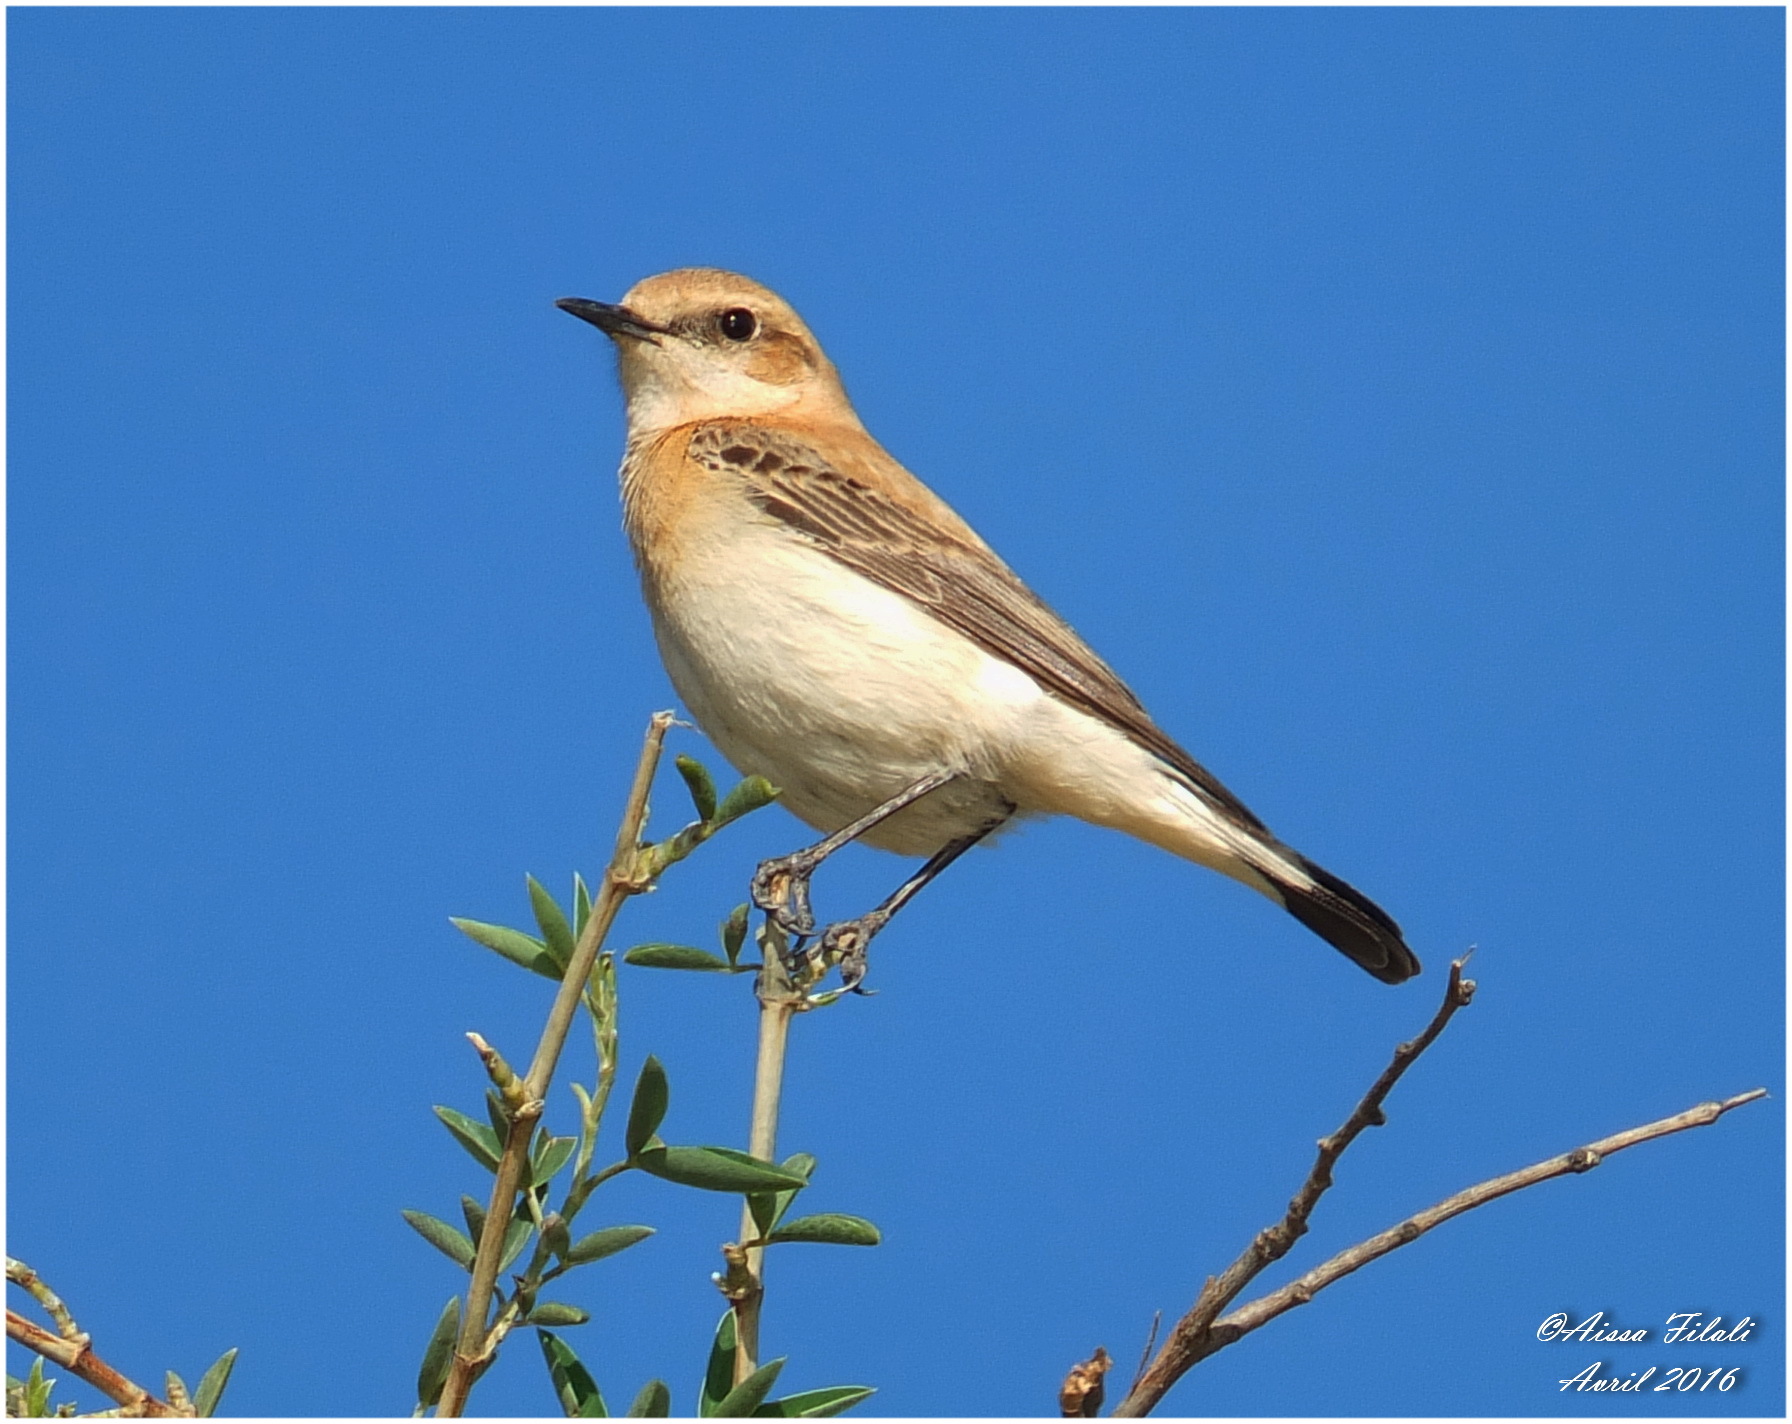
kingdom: Animalia
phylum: Chordata
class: Aves
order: Passeriformes
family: Muscicapidae
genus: Oenanthe
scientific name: Oenanthe hispanica
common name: Black-eared wheatear
